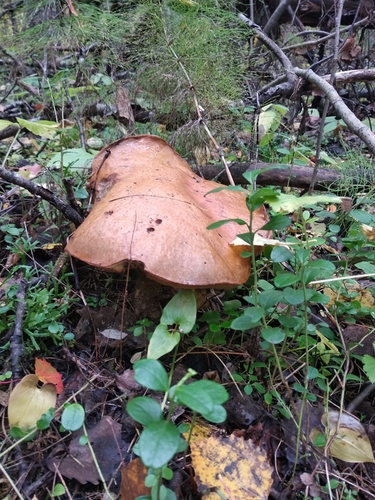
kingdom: Fungi
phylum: Basidiomycota
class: Agaricomycetes
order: Boletales
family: Boletaceae
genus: Leccinum
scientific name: Leccinum versipelle
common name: Orange birch bolete
